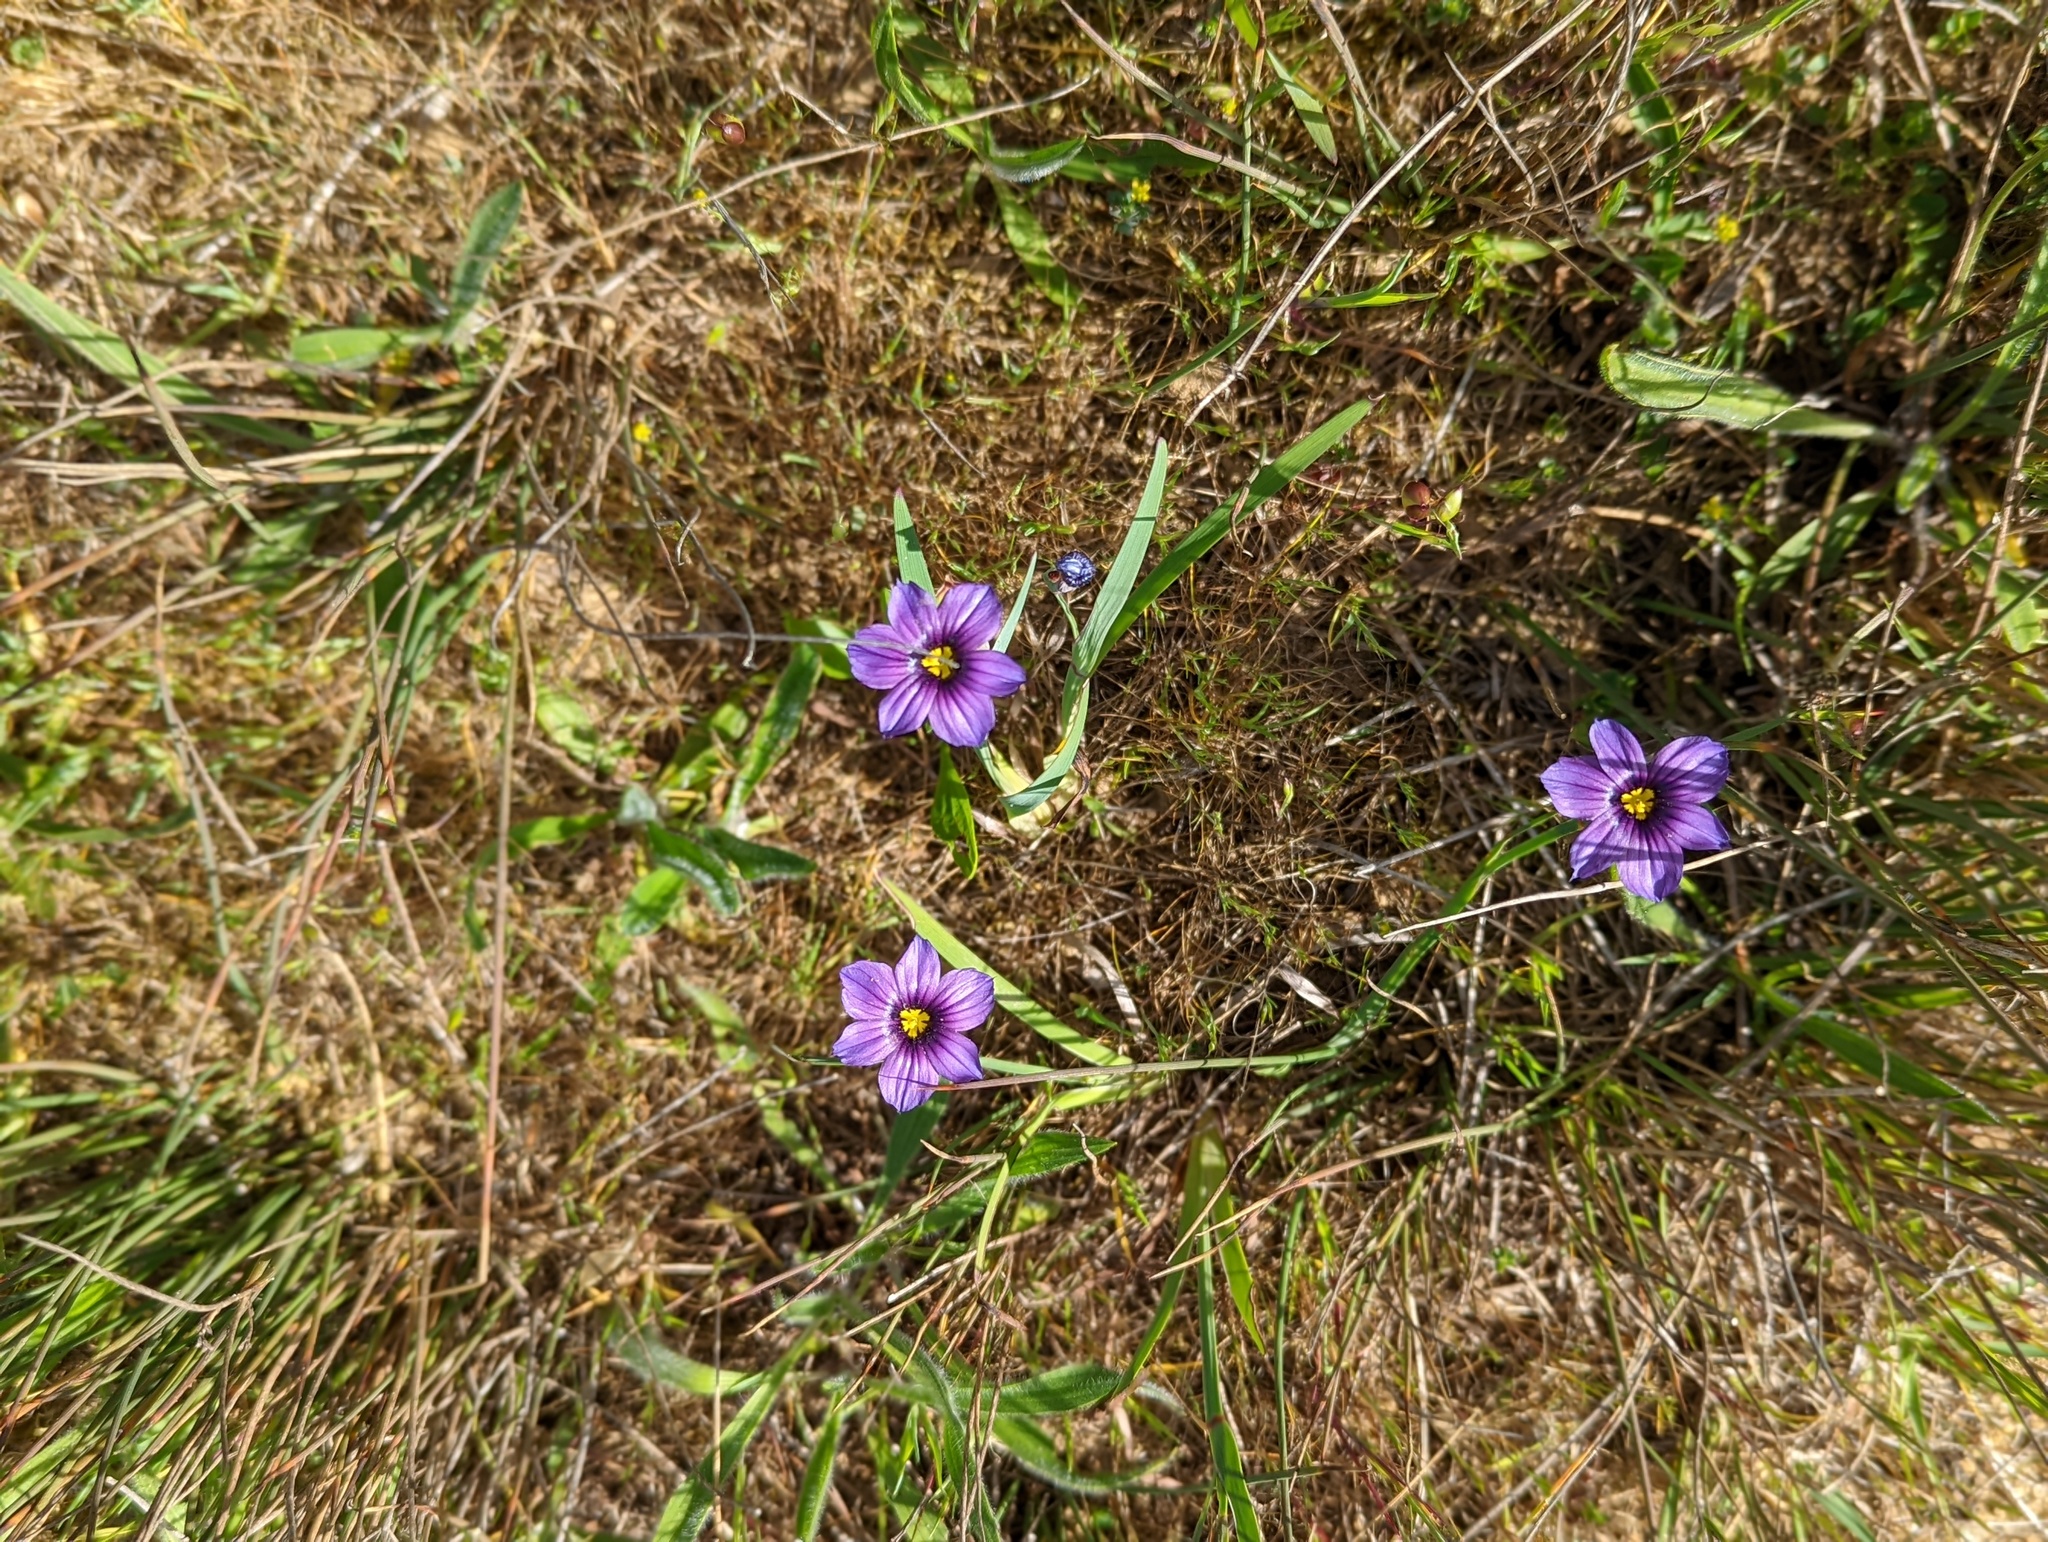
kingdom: Plantae
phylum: Tracheophyta
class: Liliopsida
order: Asparagales
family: Iridaceae
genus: Sisyrinchium
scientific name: Sisyrinchium bellum
